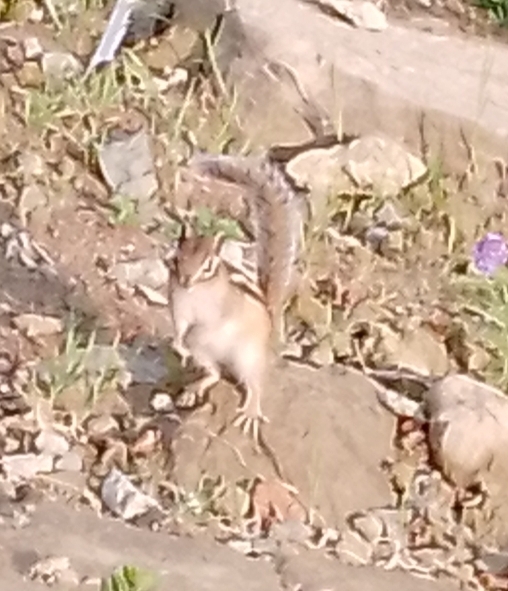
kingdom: Animalia
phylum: Chordata
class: Mammalia
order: Rodentia
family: Sciuridae
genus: Tamias
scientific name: Tamias sibiricus
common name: Siberian chipmunk
